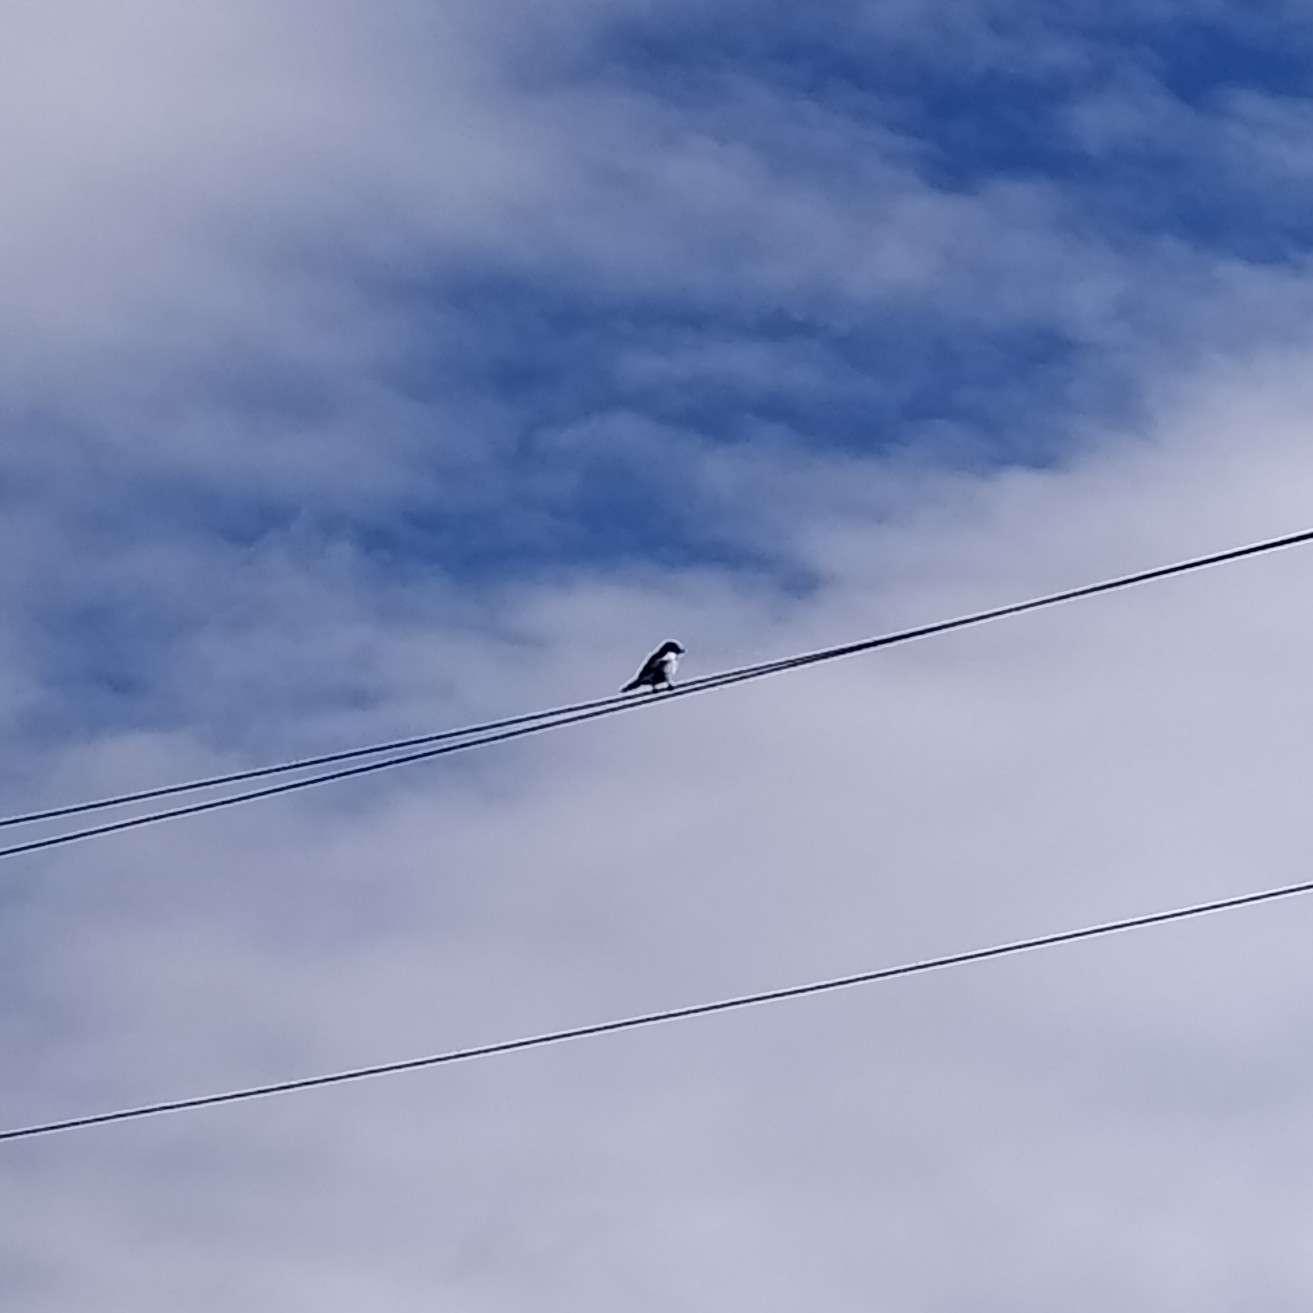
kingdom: Animalia
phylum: Chordata
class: Aves
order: Passeriformes
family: Corvidae
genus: Pica
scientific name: Pica pica
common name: Eurasian magpie
